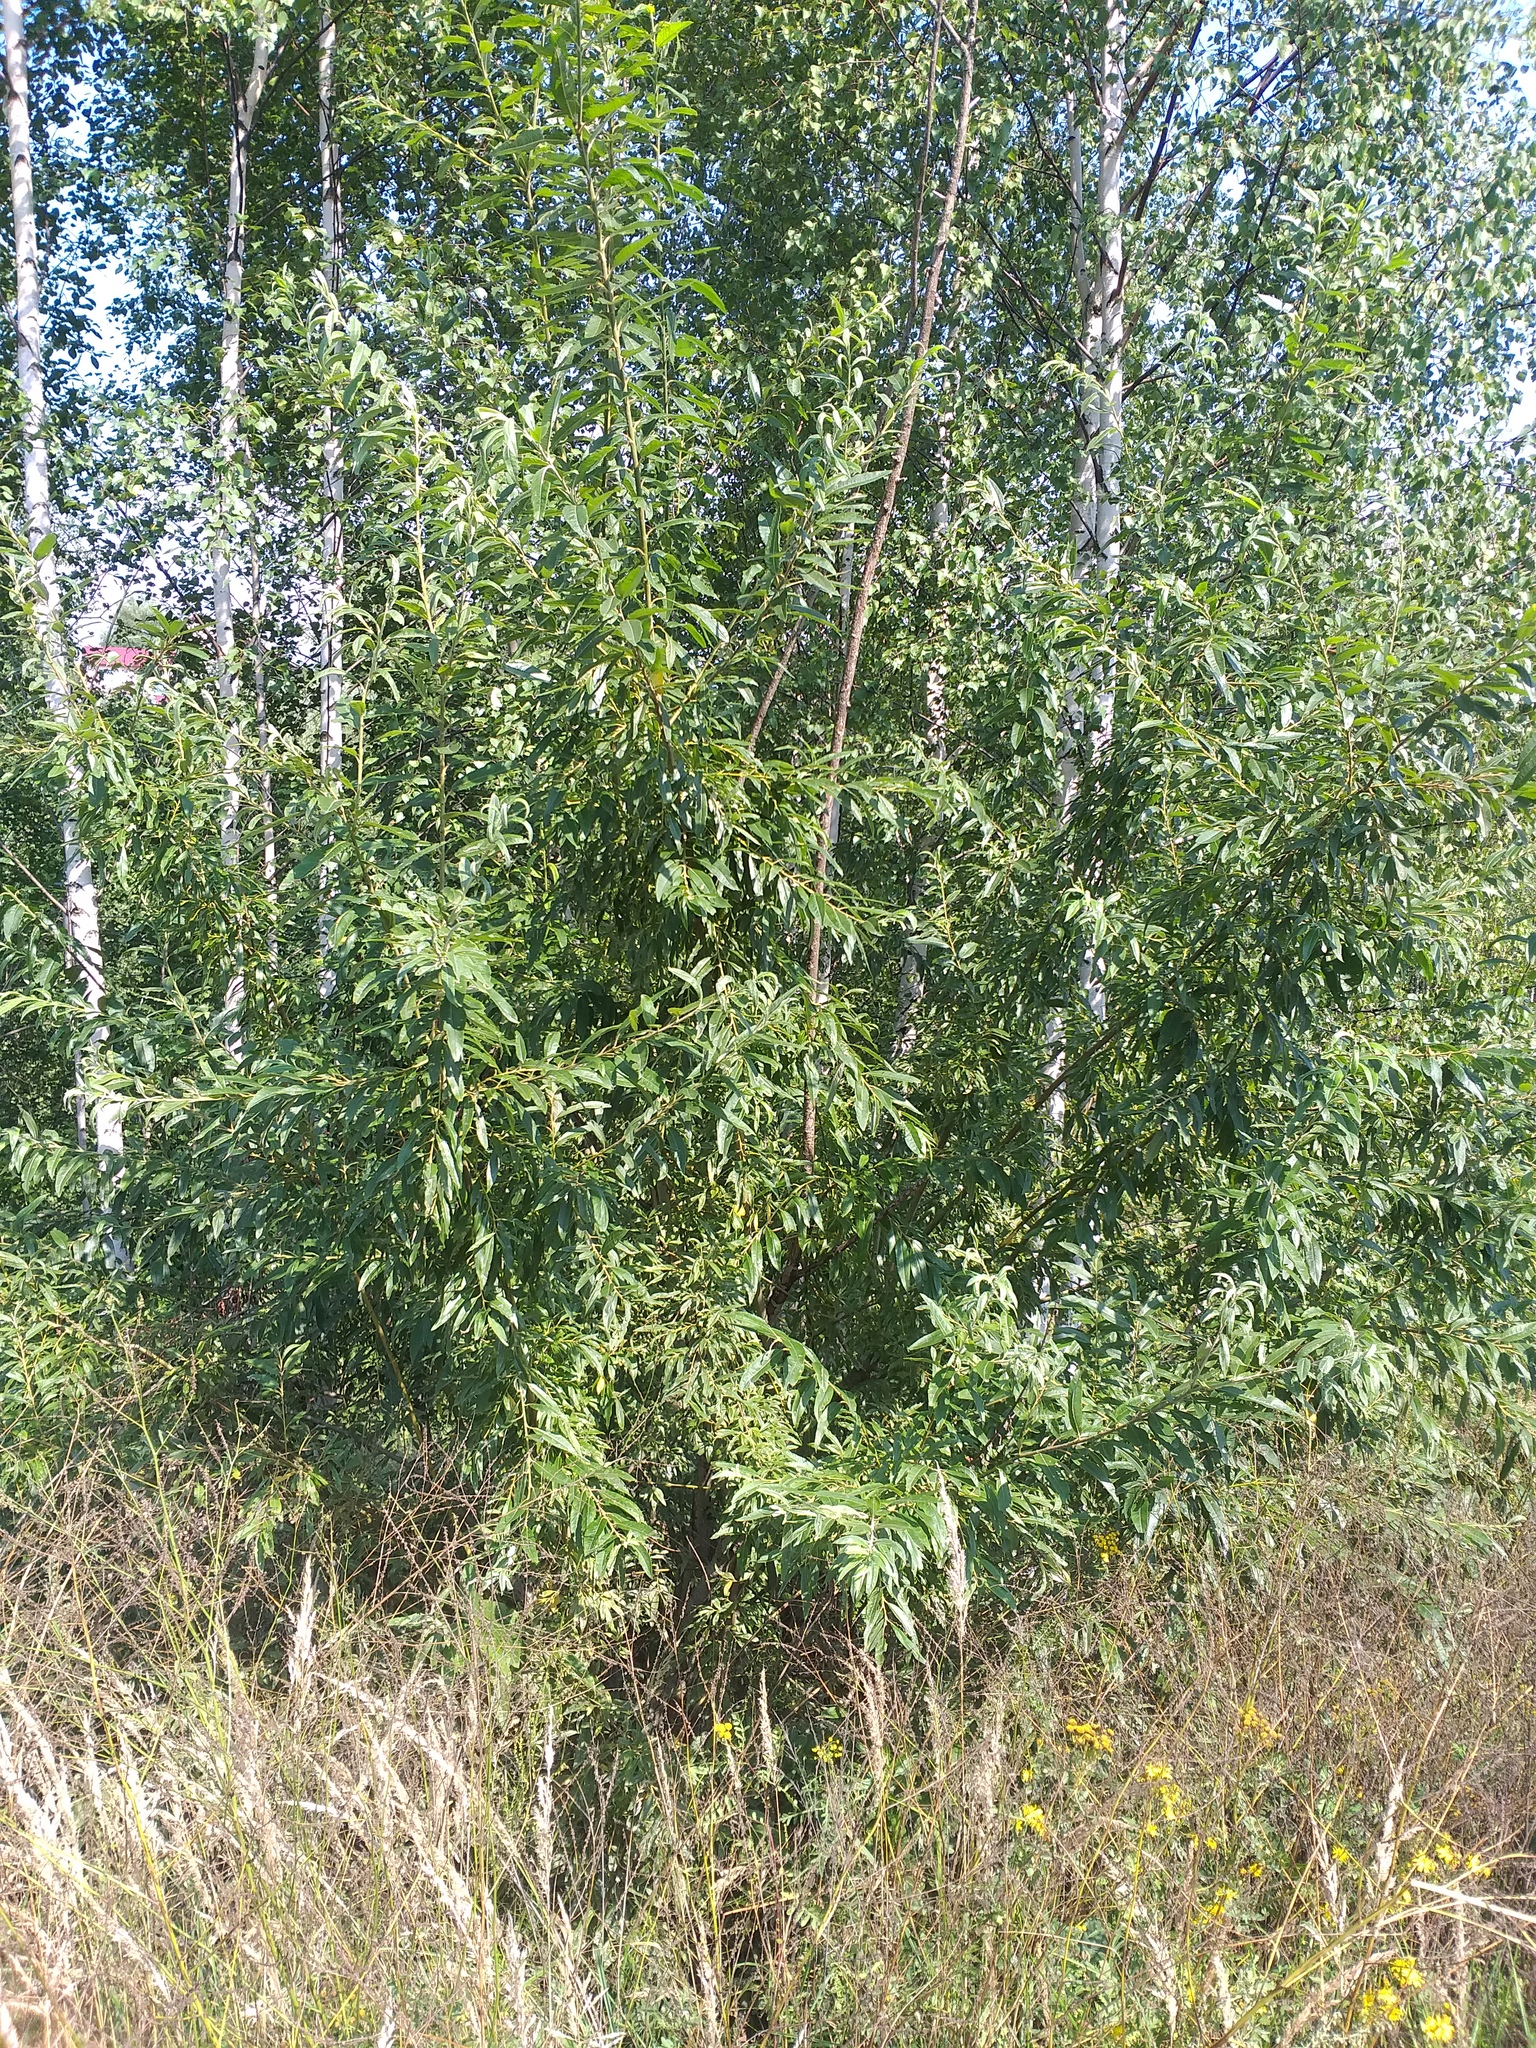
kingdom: Plantae
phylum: Tracheophyta
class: Magnoliopsida
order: Malpighiales
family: Salicaceae
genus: Salix
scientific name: Salix gmelinii
